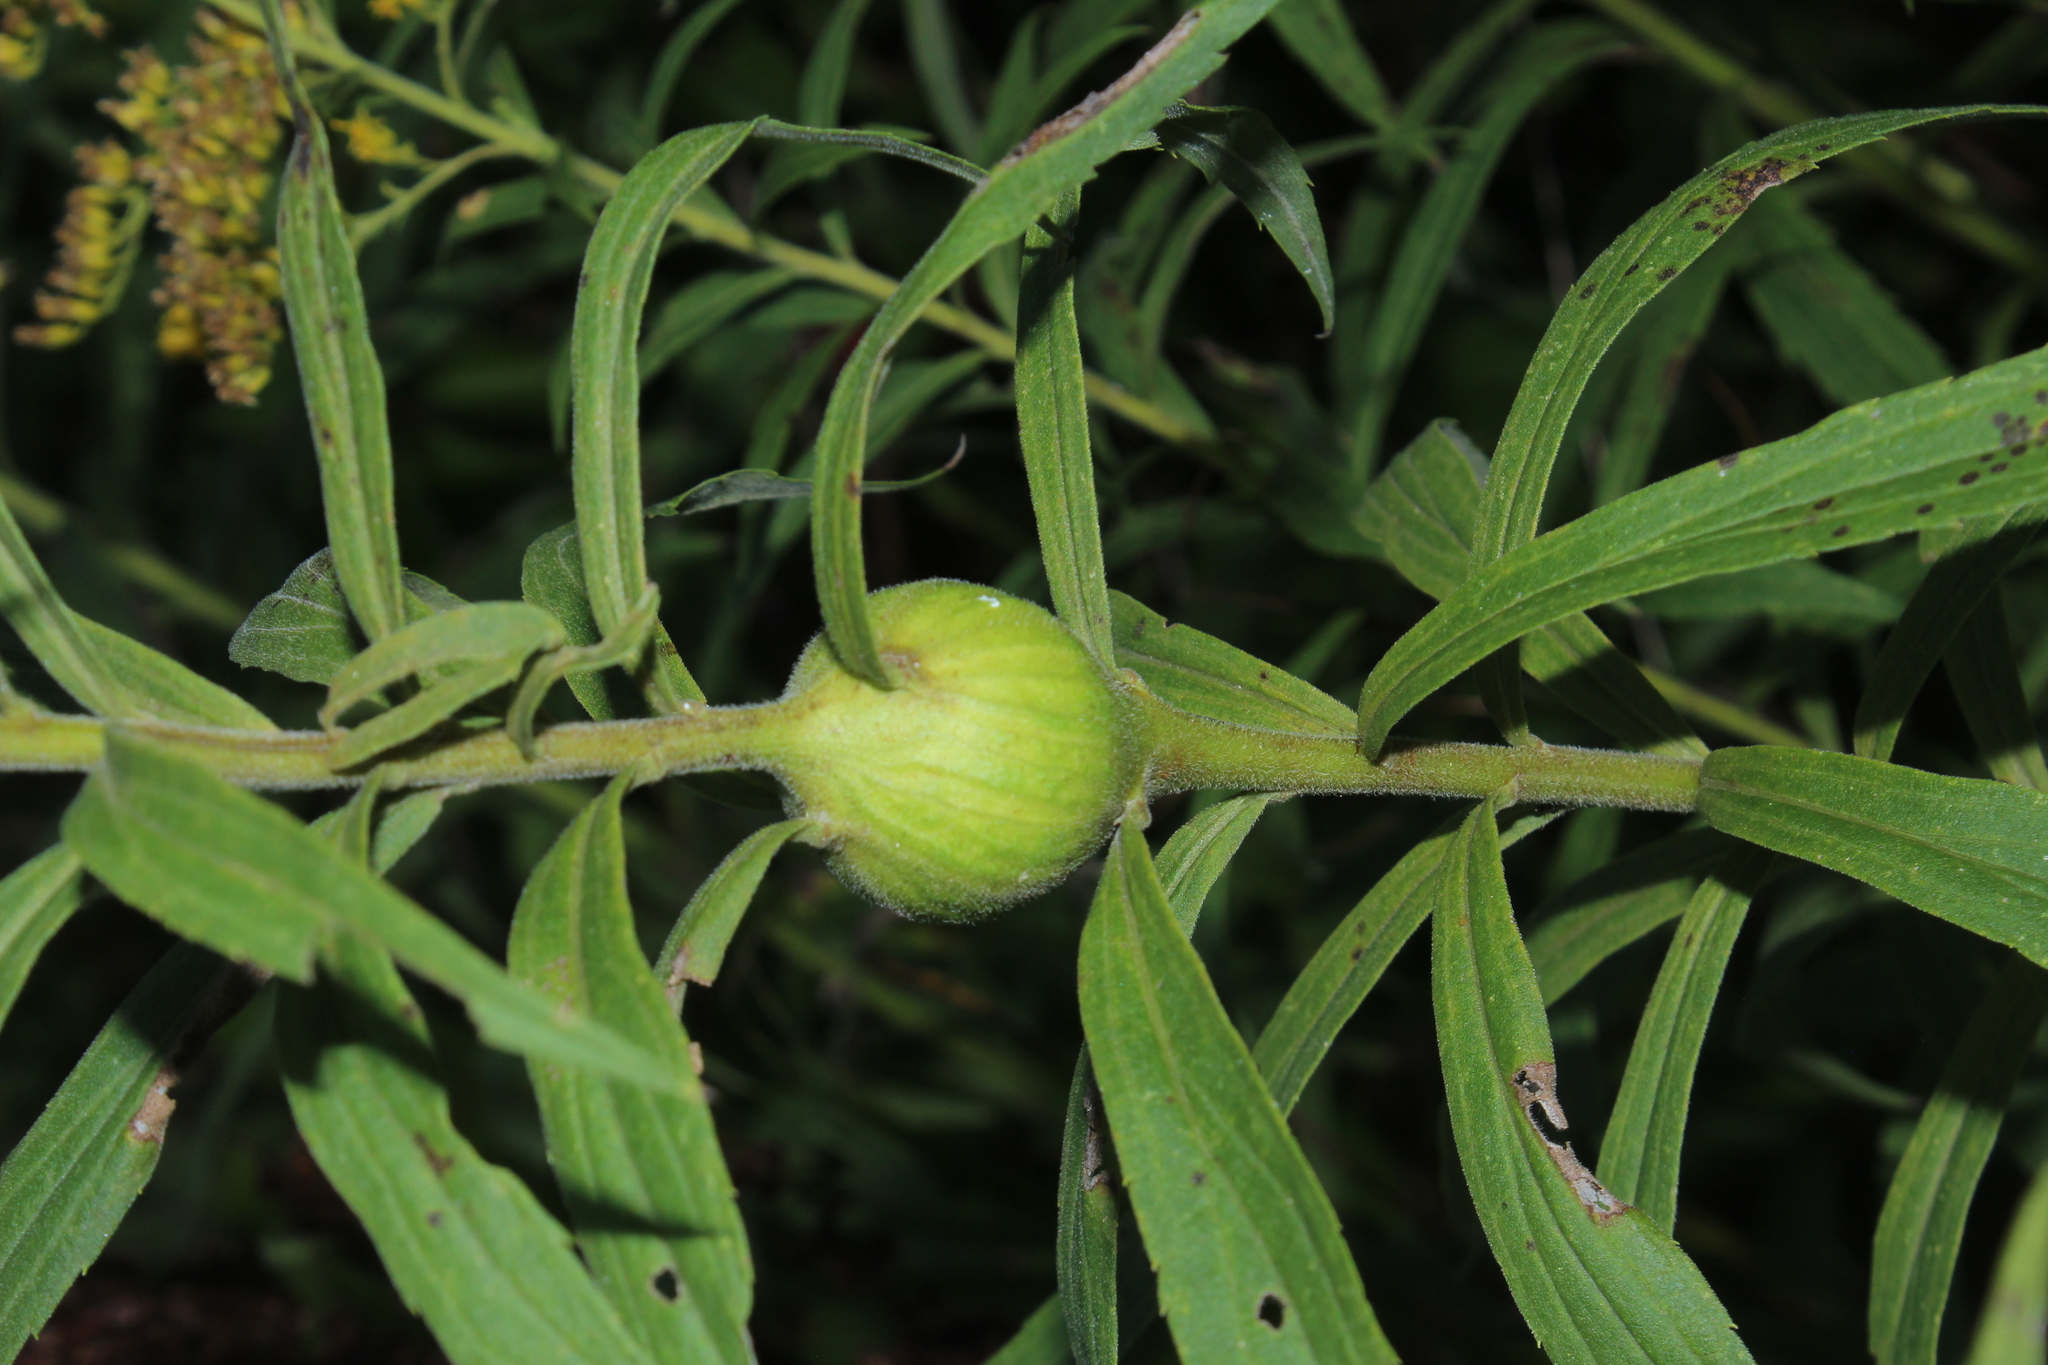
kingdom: Animalia
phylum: Arthropoda
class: Insecta
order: Diptera
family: Tephritidae
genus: Eurosta
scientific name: Eurosta solidaginis
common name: Goldenrod gall fly
